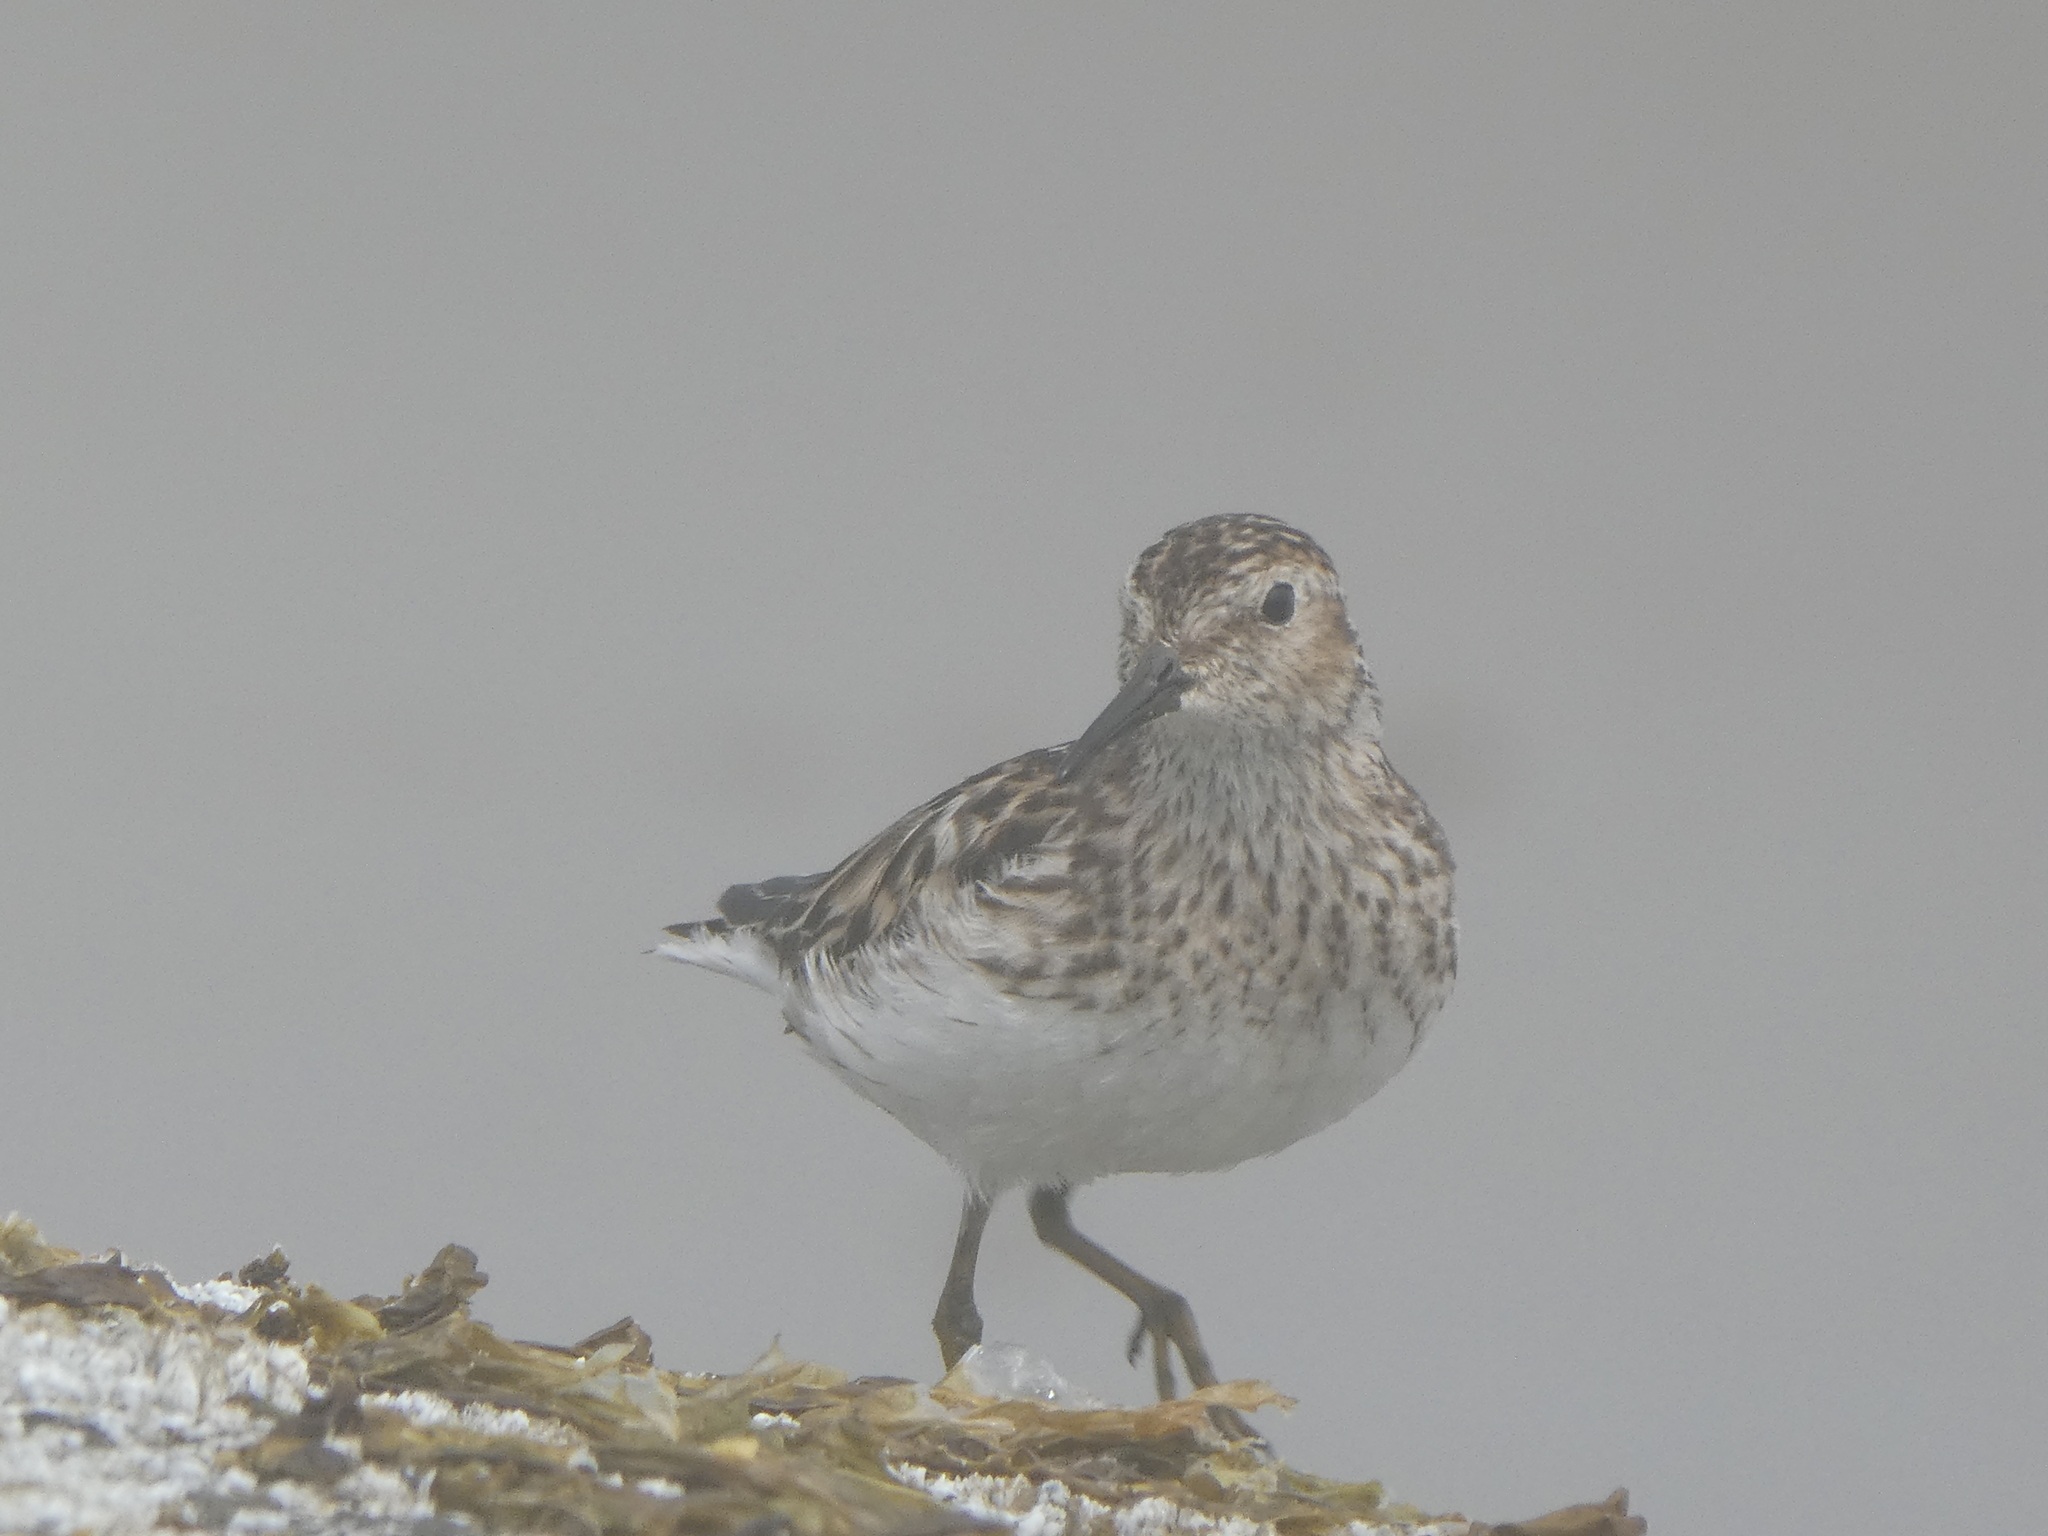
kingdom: Animalia
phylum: Chordata
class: Aves
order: Charadriiformes
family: Scolopacidae
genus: Calidris
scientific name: Calidris minutilla
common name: Least sandpiper
